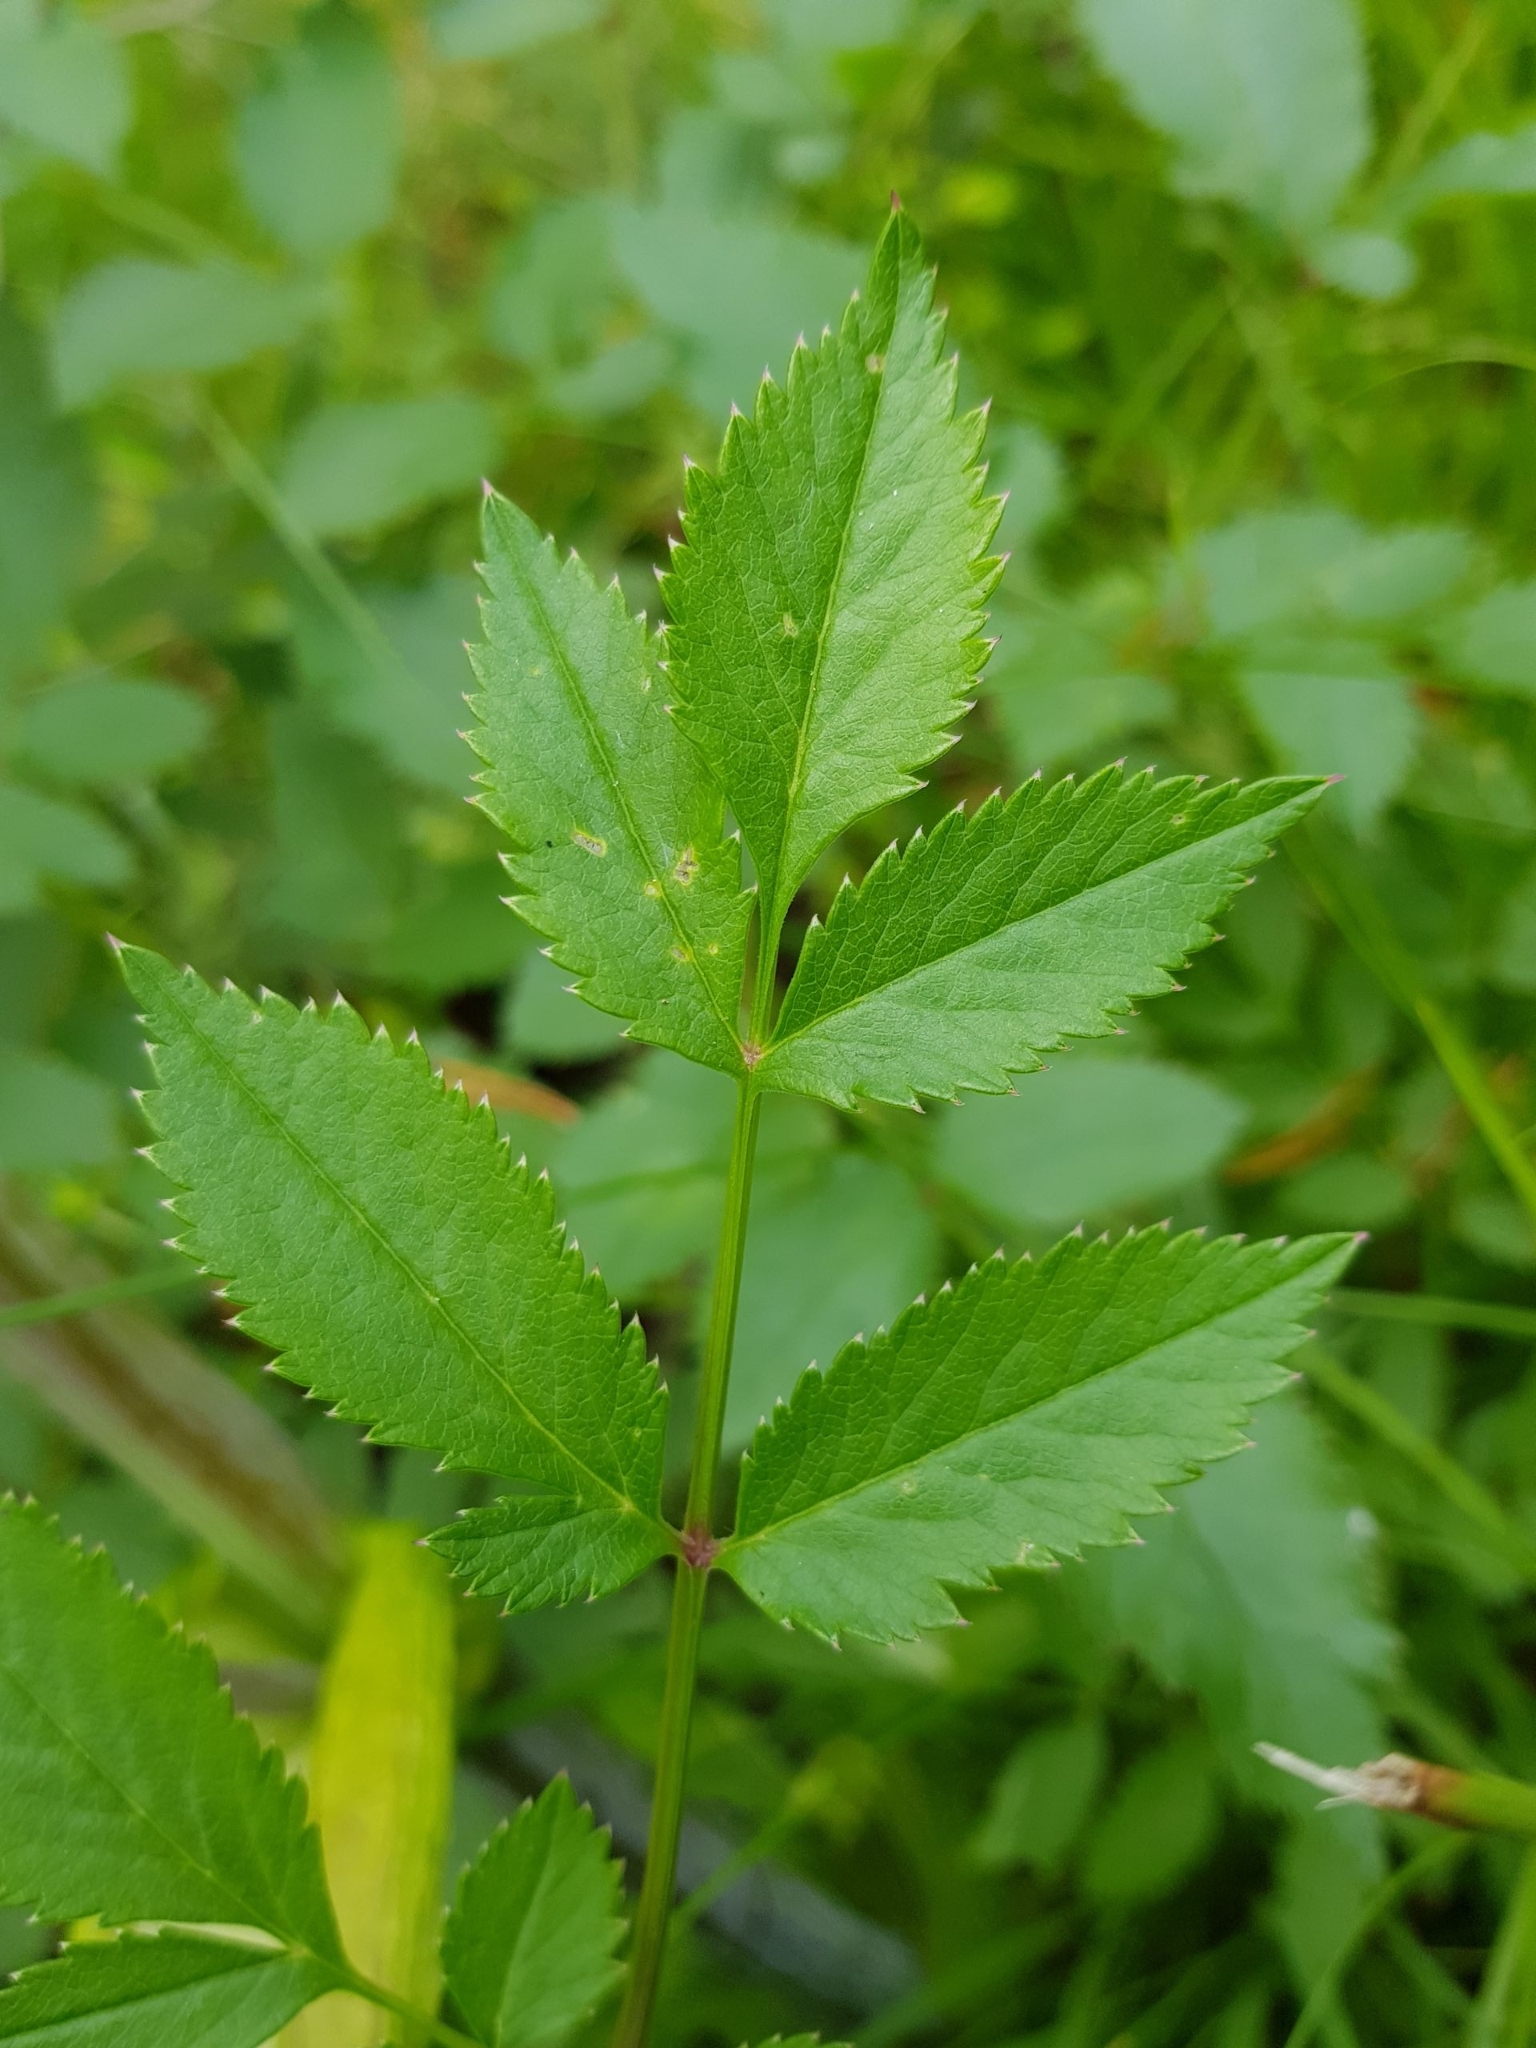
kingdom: Plantae
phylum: Tracheophyta
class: Magnoliopsida
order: Apiales
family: Apiaceae
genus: Angelica
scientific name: Angelica sylvestris
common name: Wild angelica
